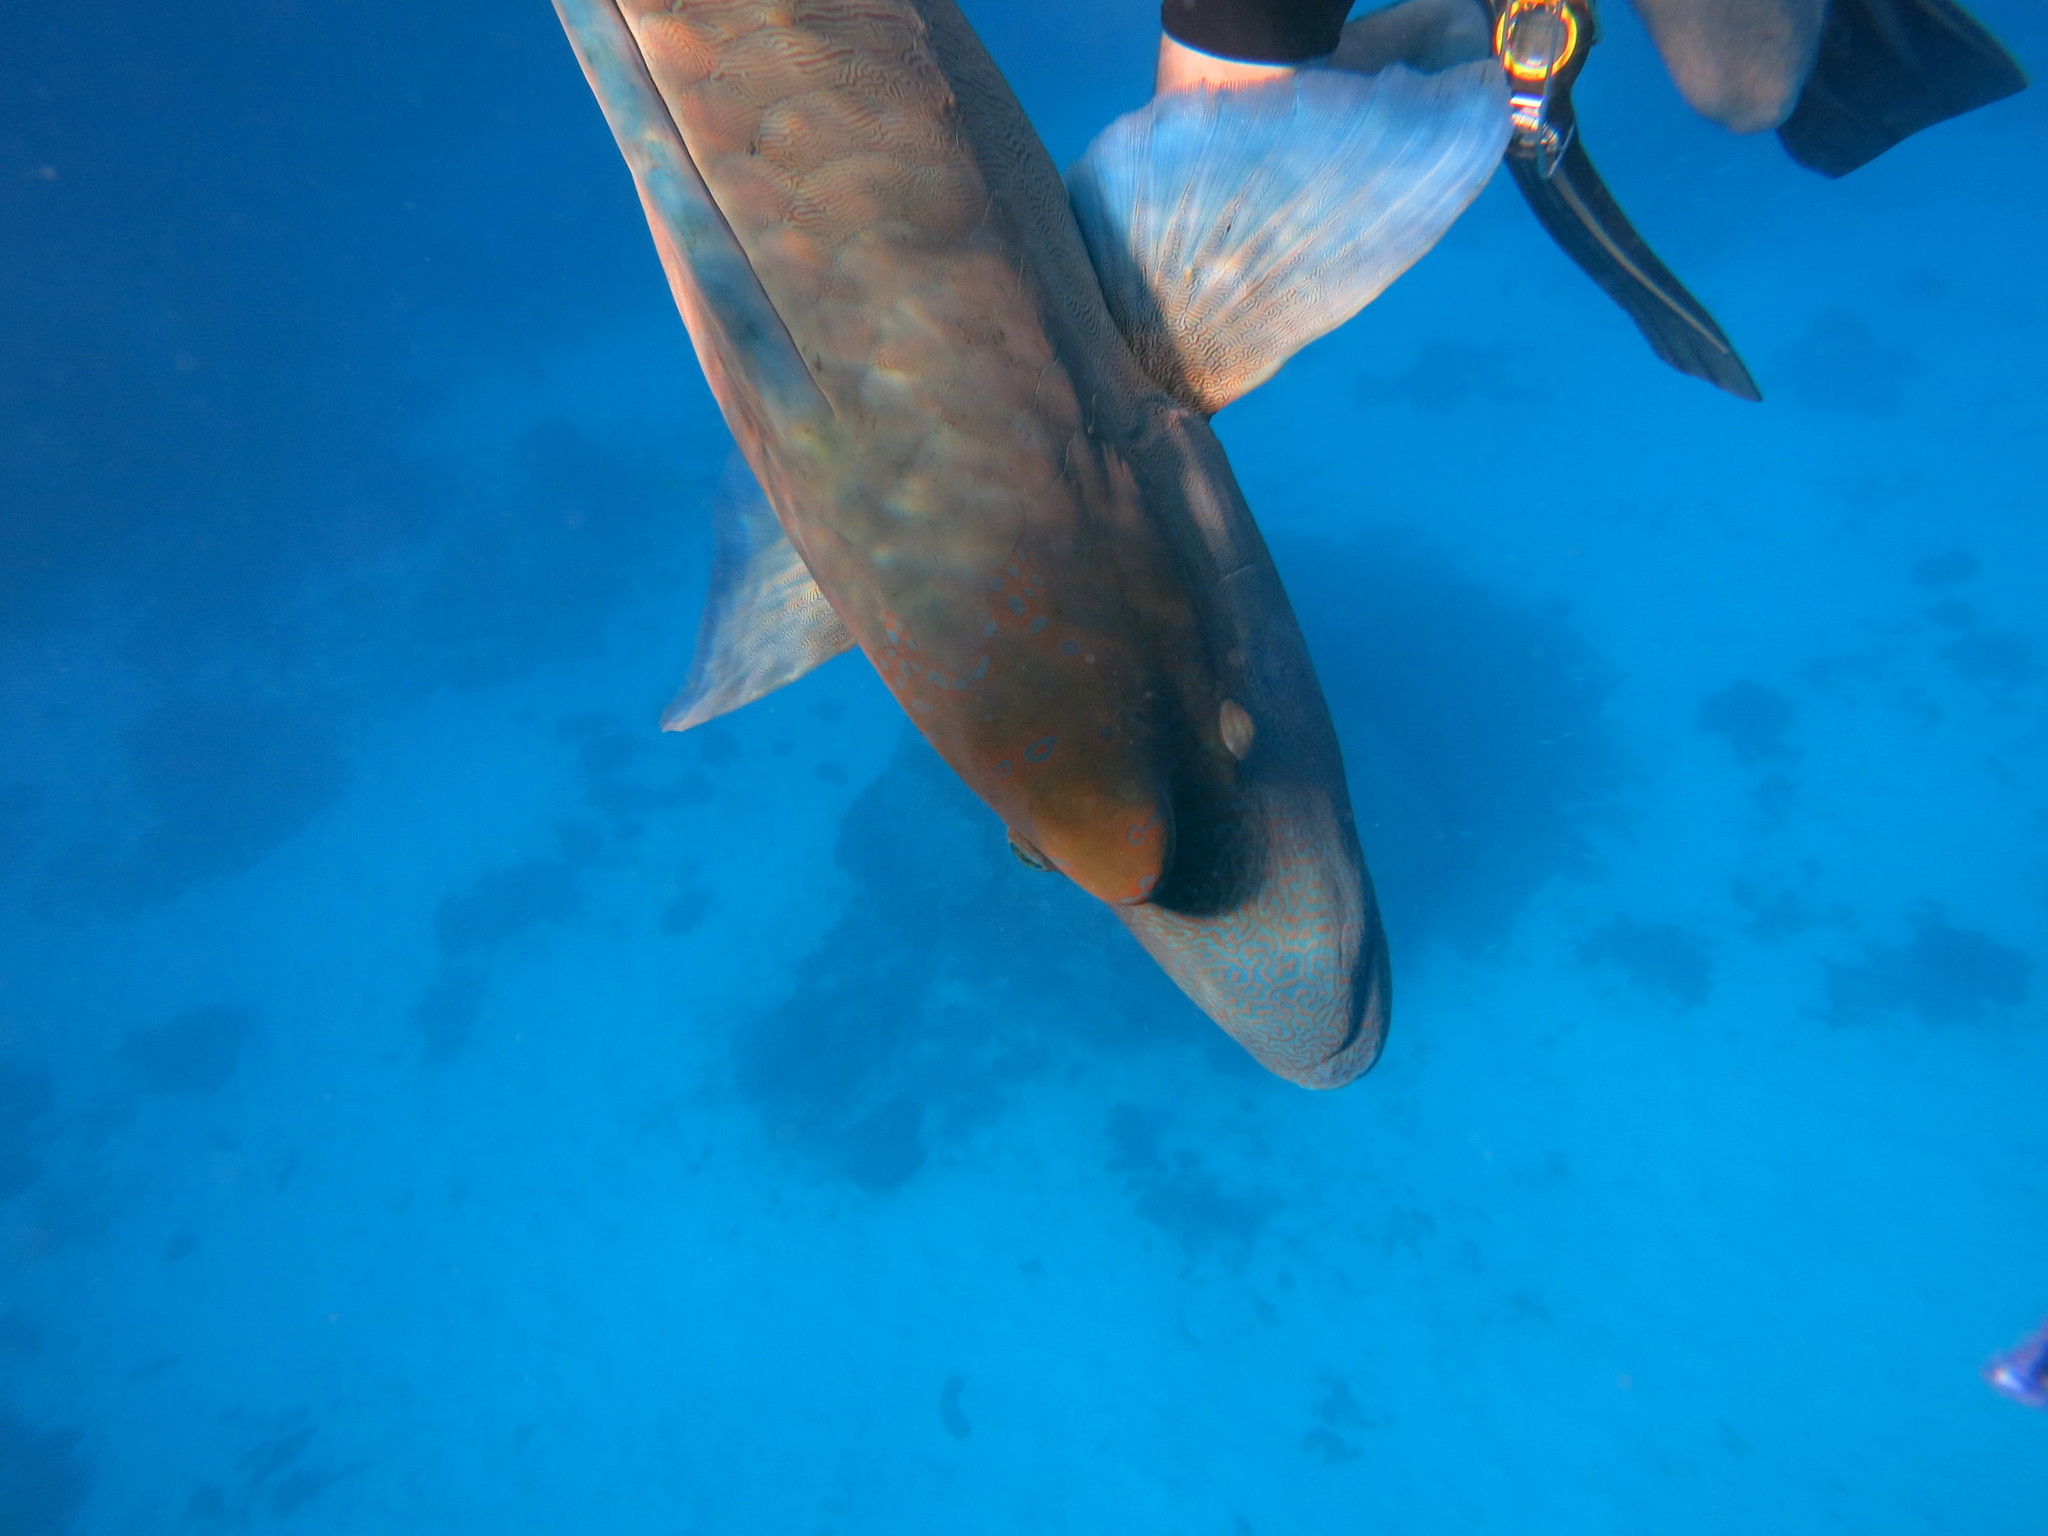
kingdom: Animalia
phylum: Chordata
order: Perciformes
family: Labridae
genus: Cheilinus
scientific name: Cheilinus undulatus
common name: Humphead wrasse
